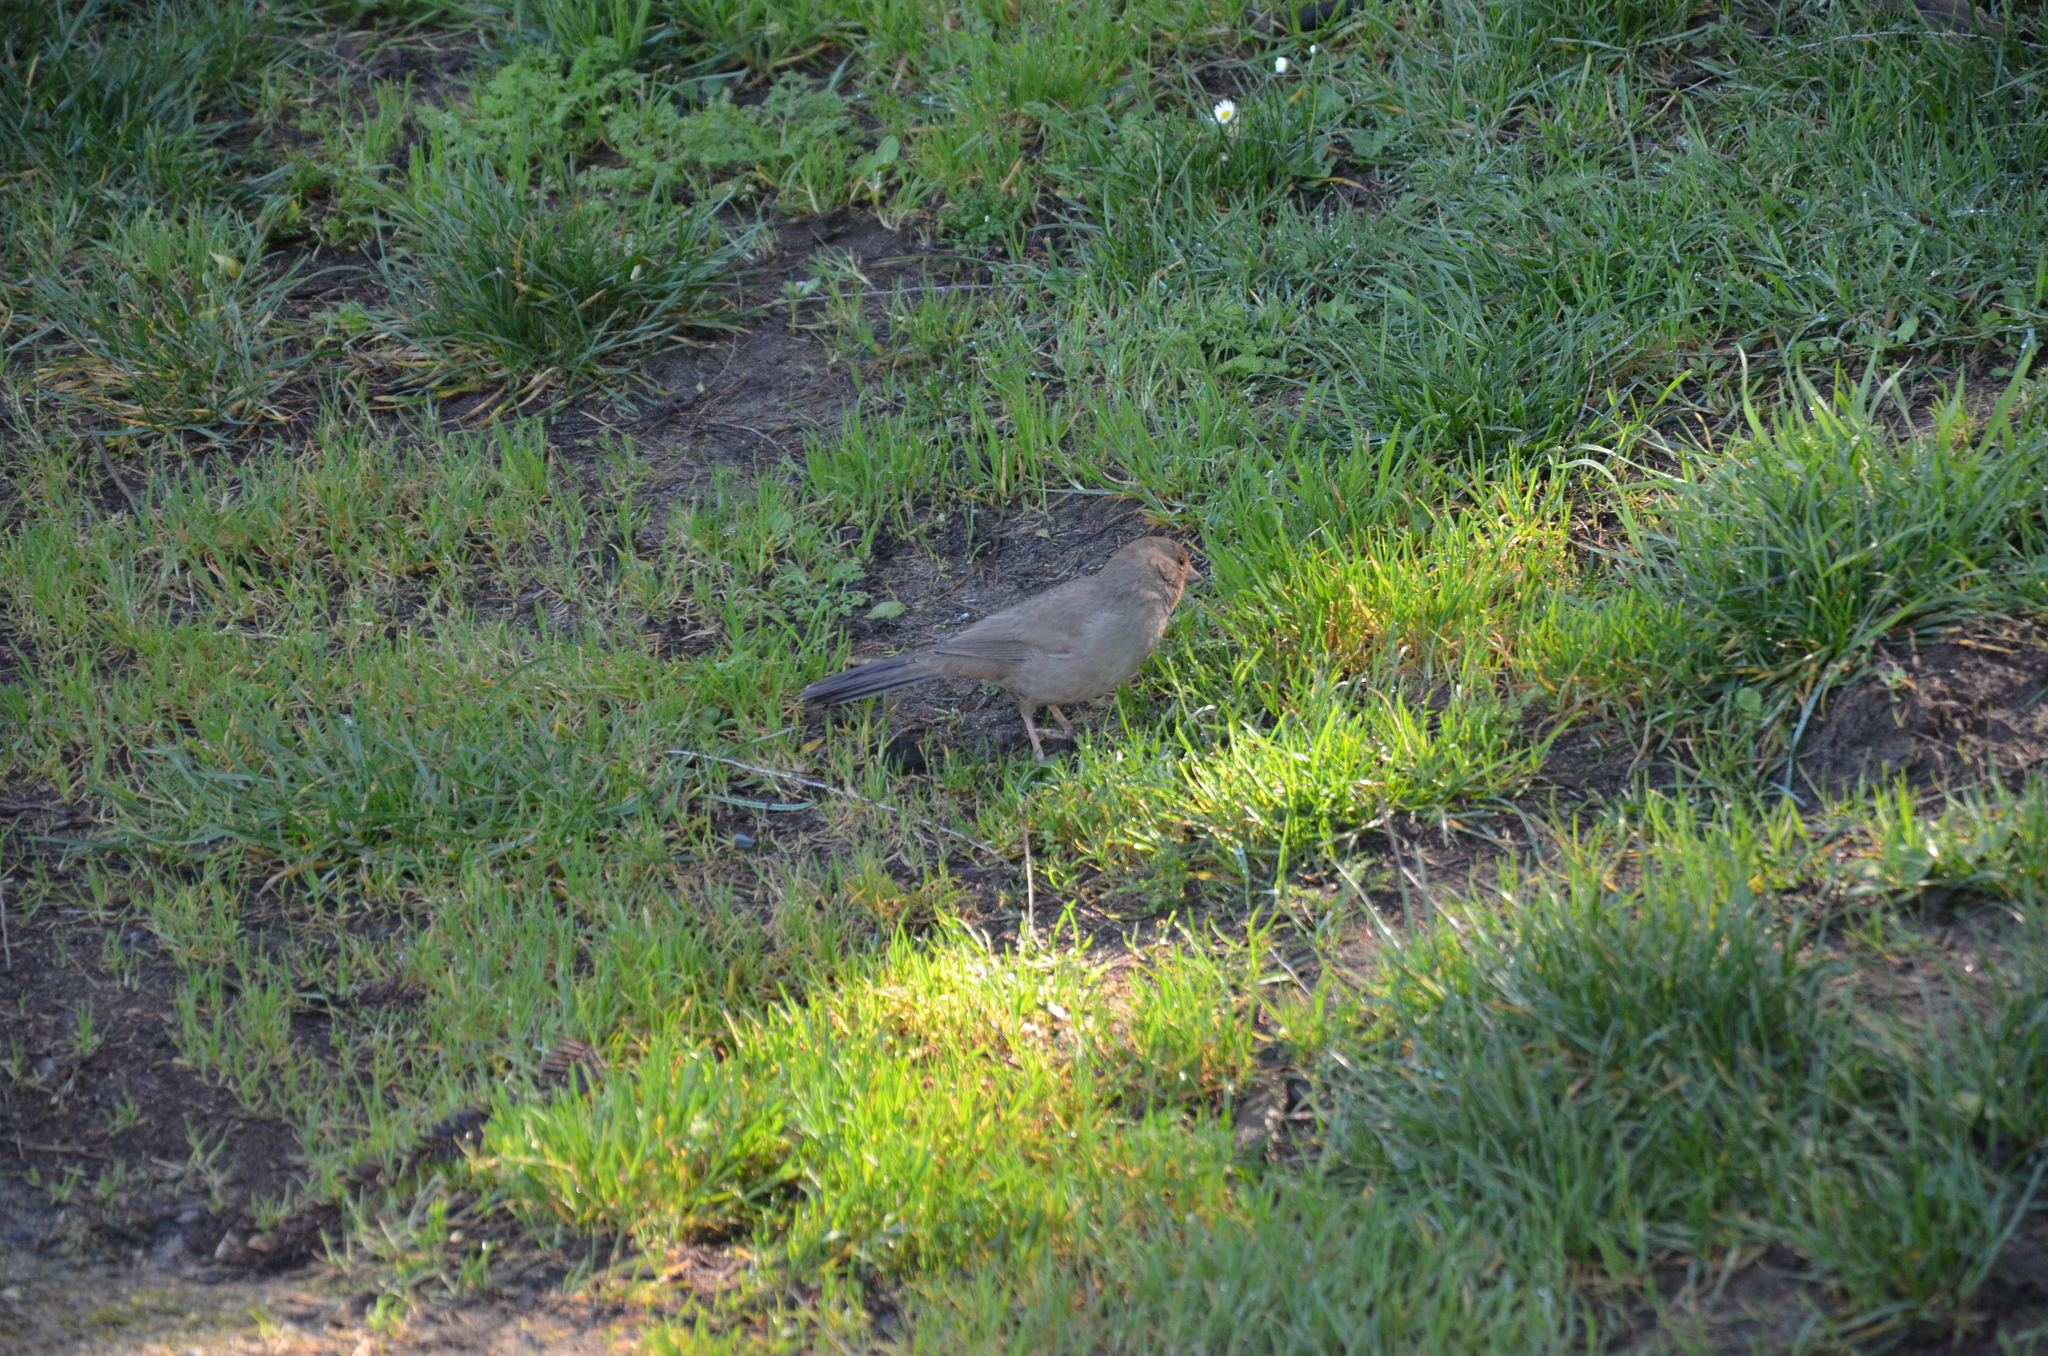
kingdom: Animalia
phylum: Chordata
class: Aves
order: Passeriformes
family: Passerellidae
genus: Melozone
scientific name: Melozone crissalis
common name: California towhee
